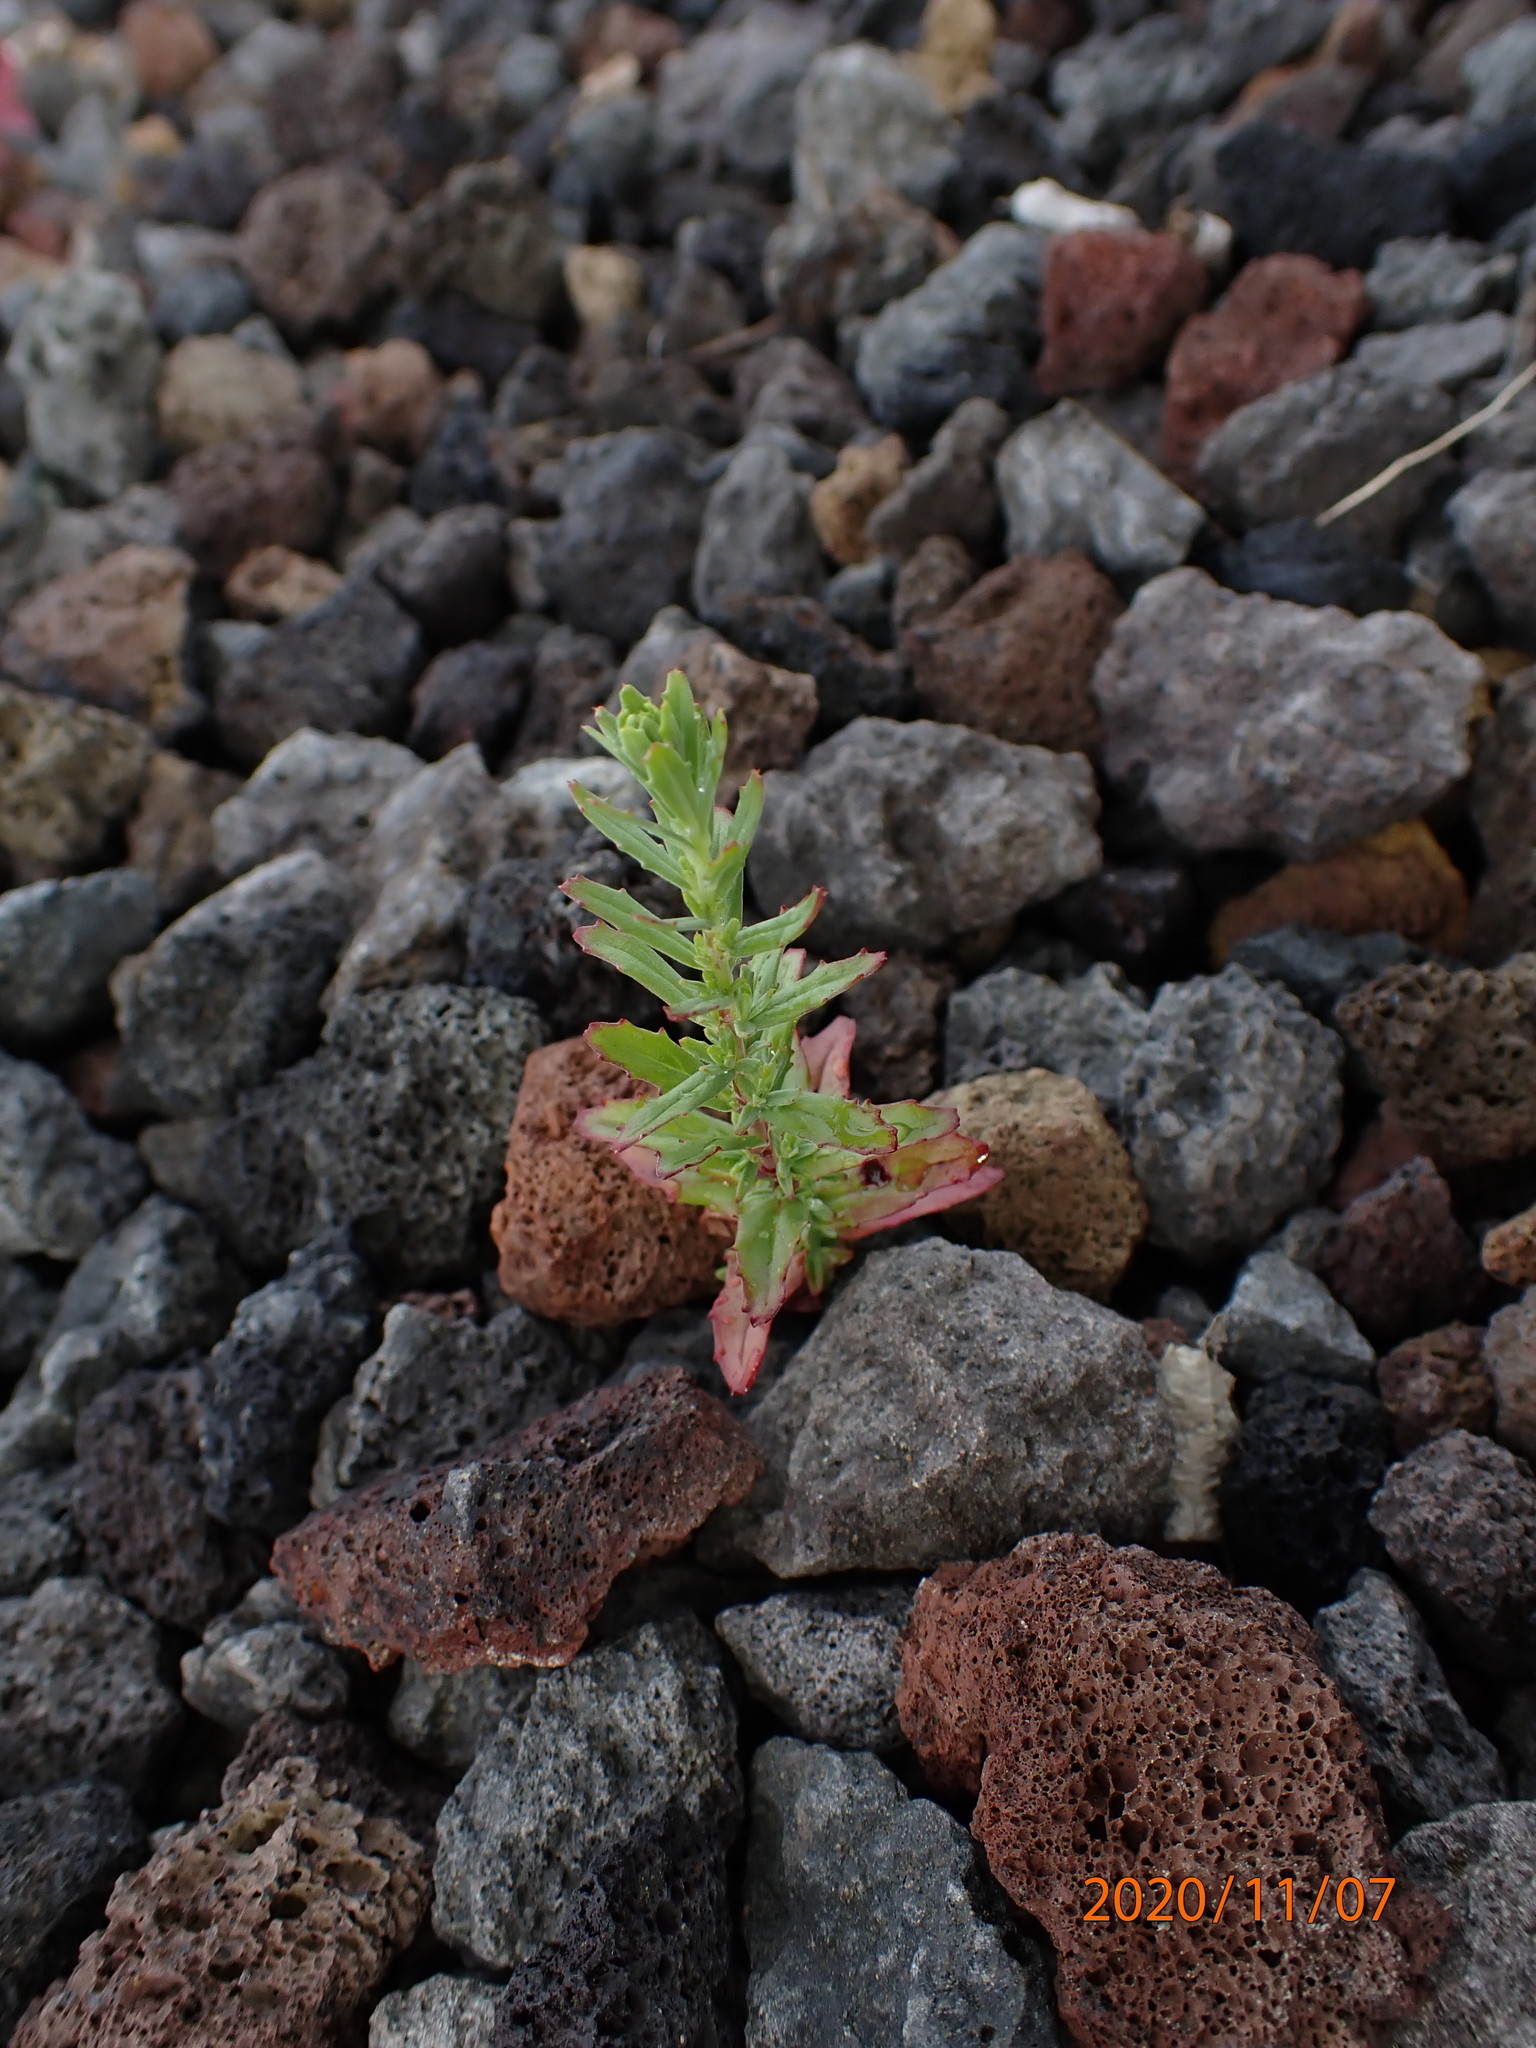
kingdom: Plantae
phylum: Tracheophyta
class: Magnoliopsida
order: Myrtales
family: Onagraceae
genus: Epilobium
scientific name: Epilobium billardierianum
